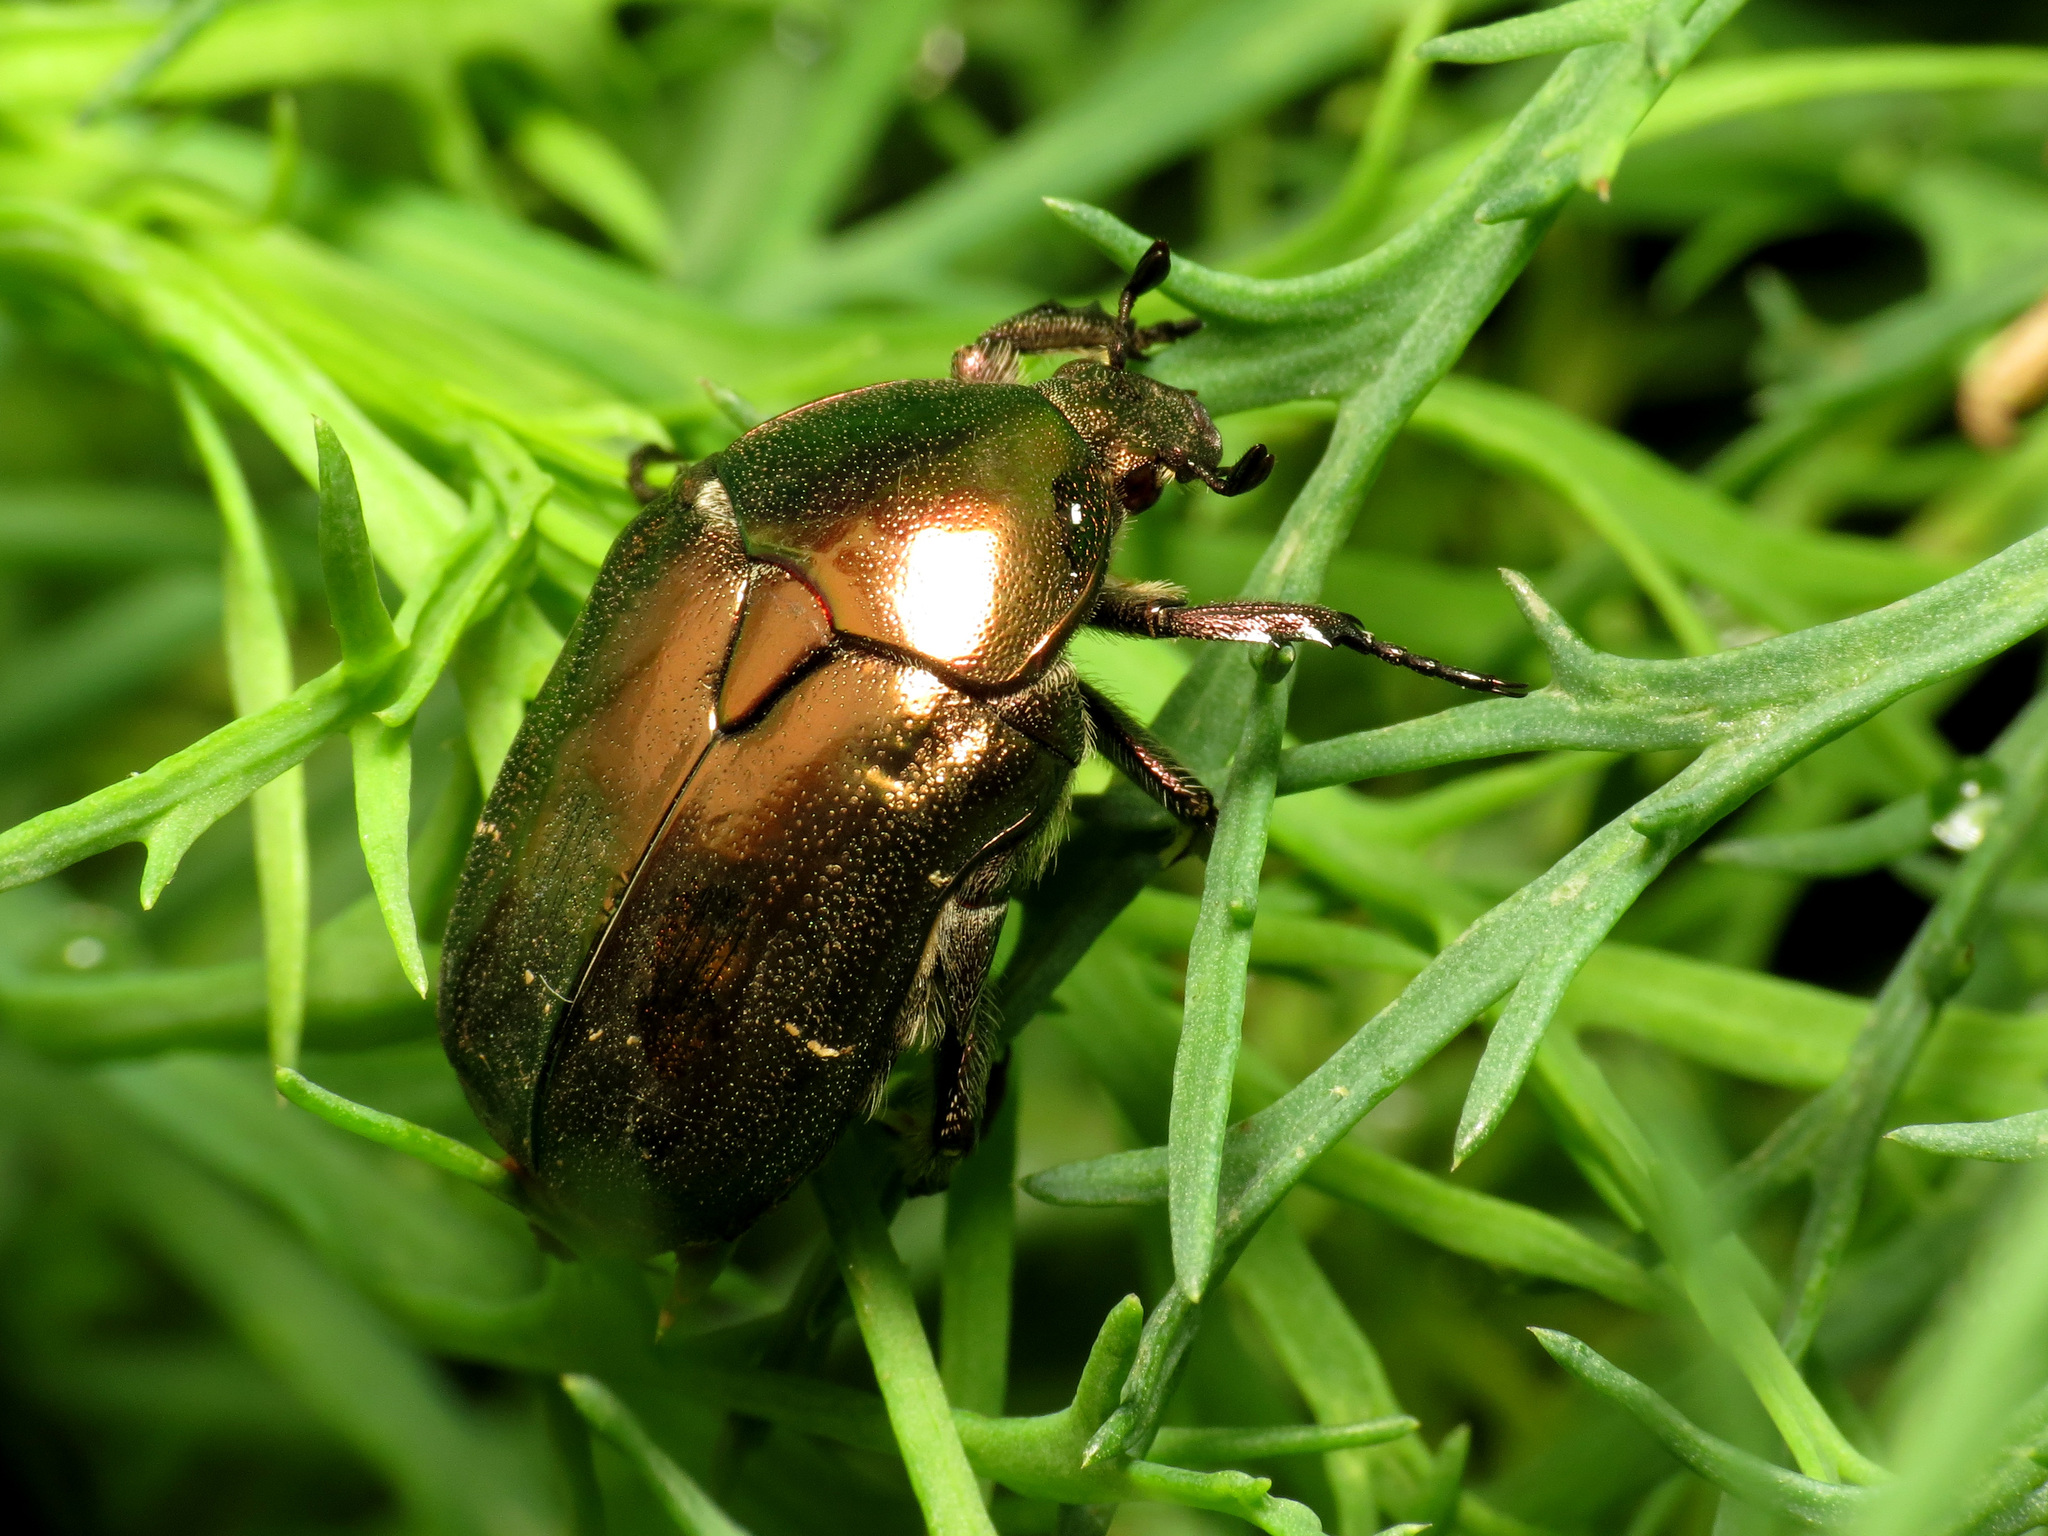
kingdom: Animalia
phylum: Arthropoda
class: Insecta
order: Coleoptera
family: Scarabaeidae
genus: Protaetia
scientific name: Protaetia cuprea
